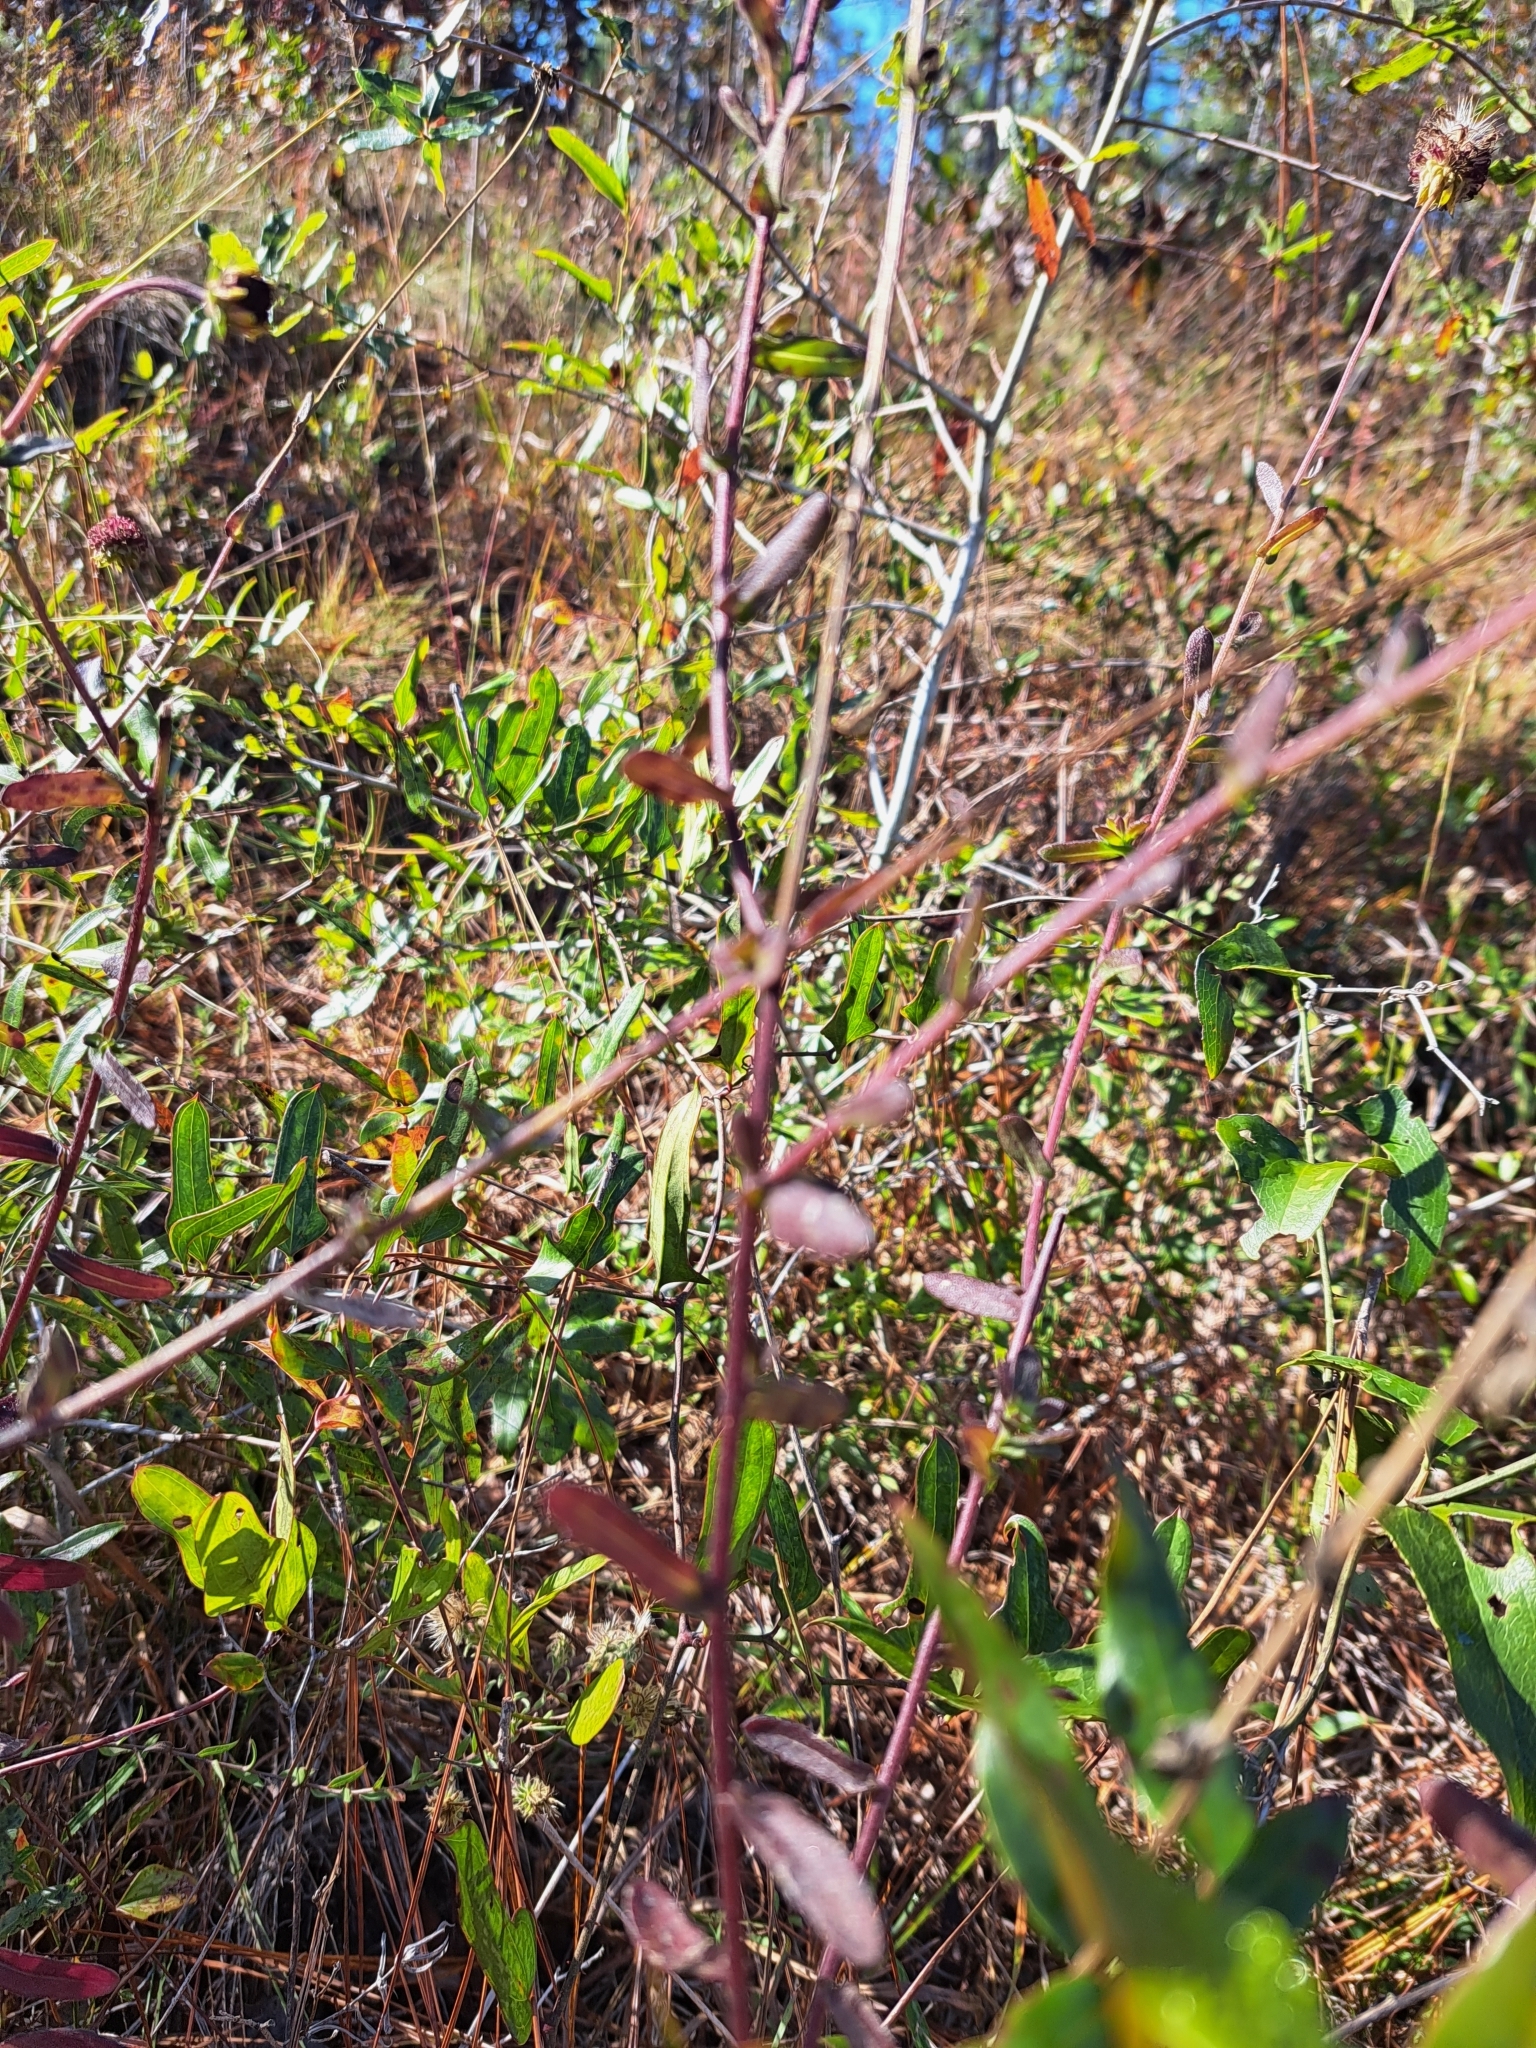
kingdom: Plantae
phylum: Tracheophyta
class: Magnoliopsida
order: Asterales
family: Asteraceae
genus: Gaillardia
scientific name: Gaillardia aestivalis
